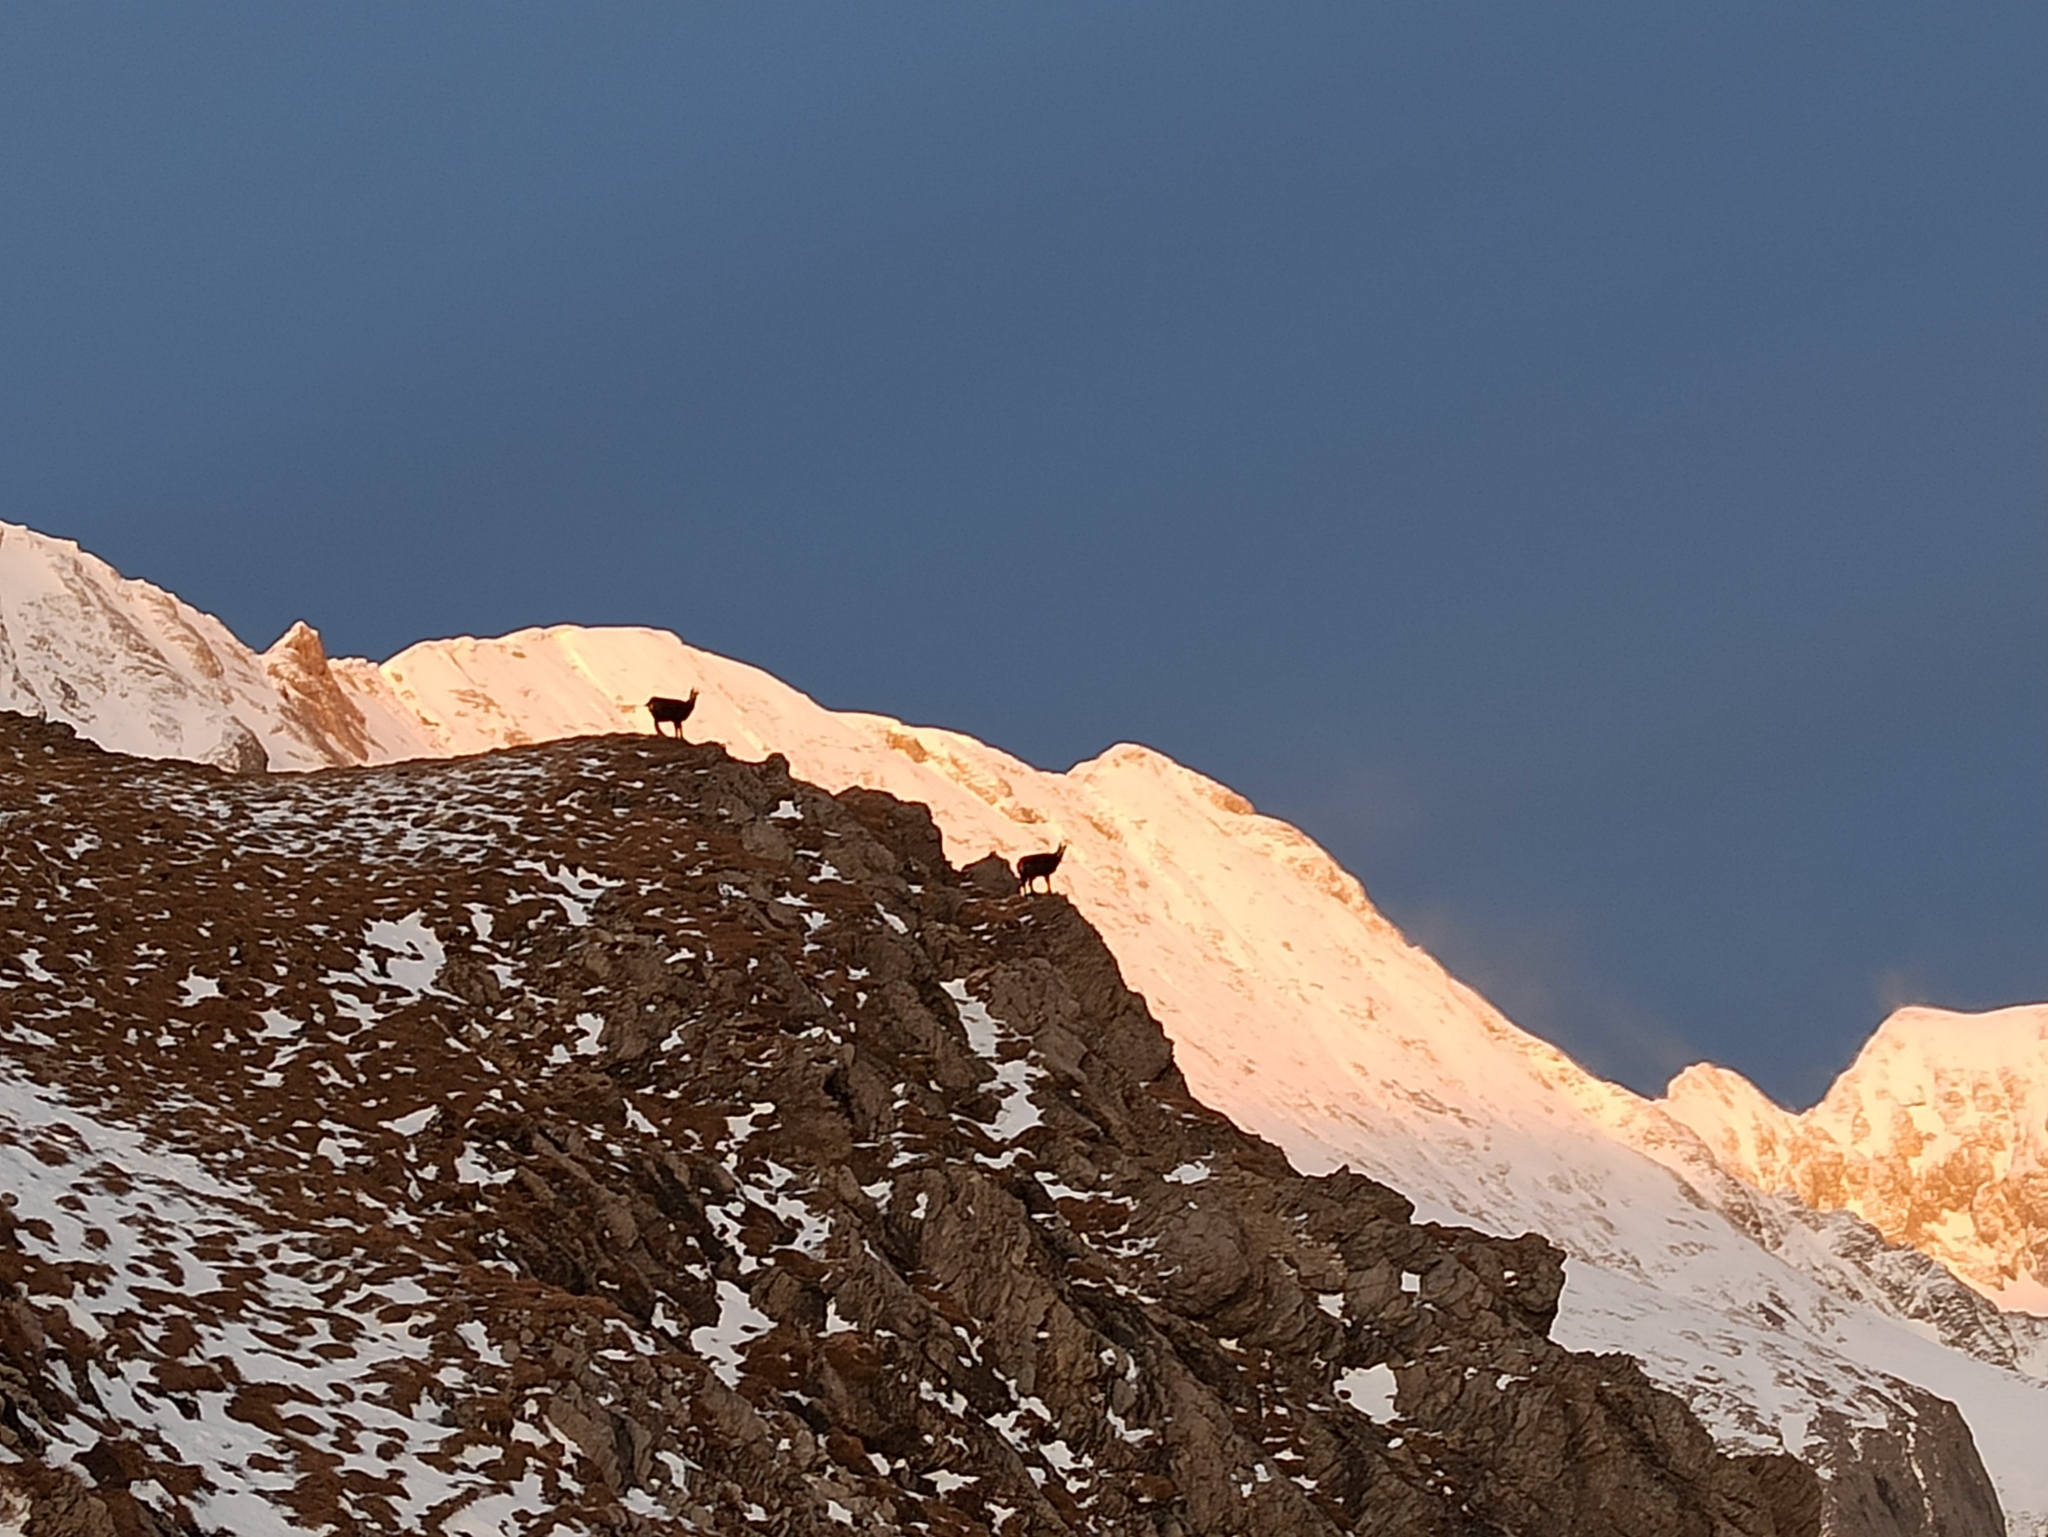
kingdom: Animalia
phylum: Chordata
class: Mammalia
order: Artiodactyla
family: Bovidae
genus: Rupicapra
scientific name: Rupicapra rupicapra
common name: Chamois
